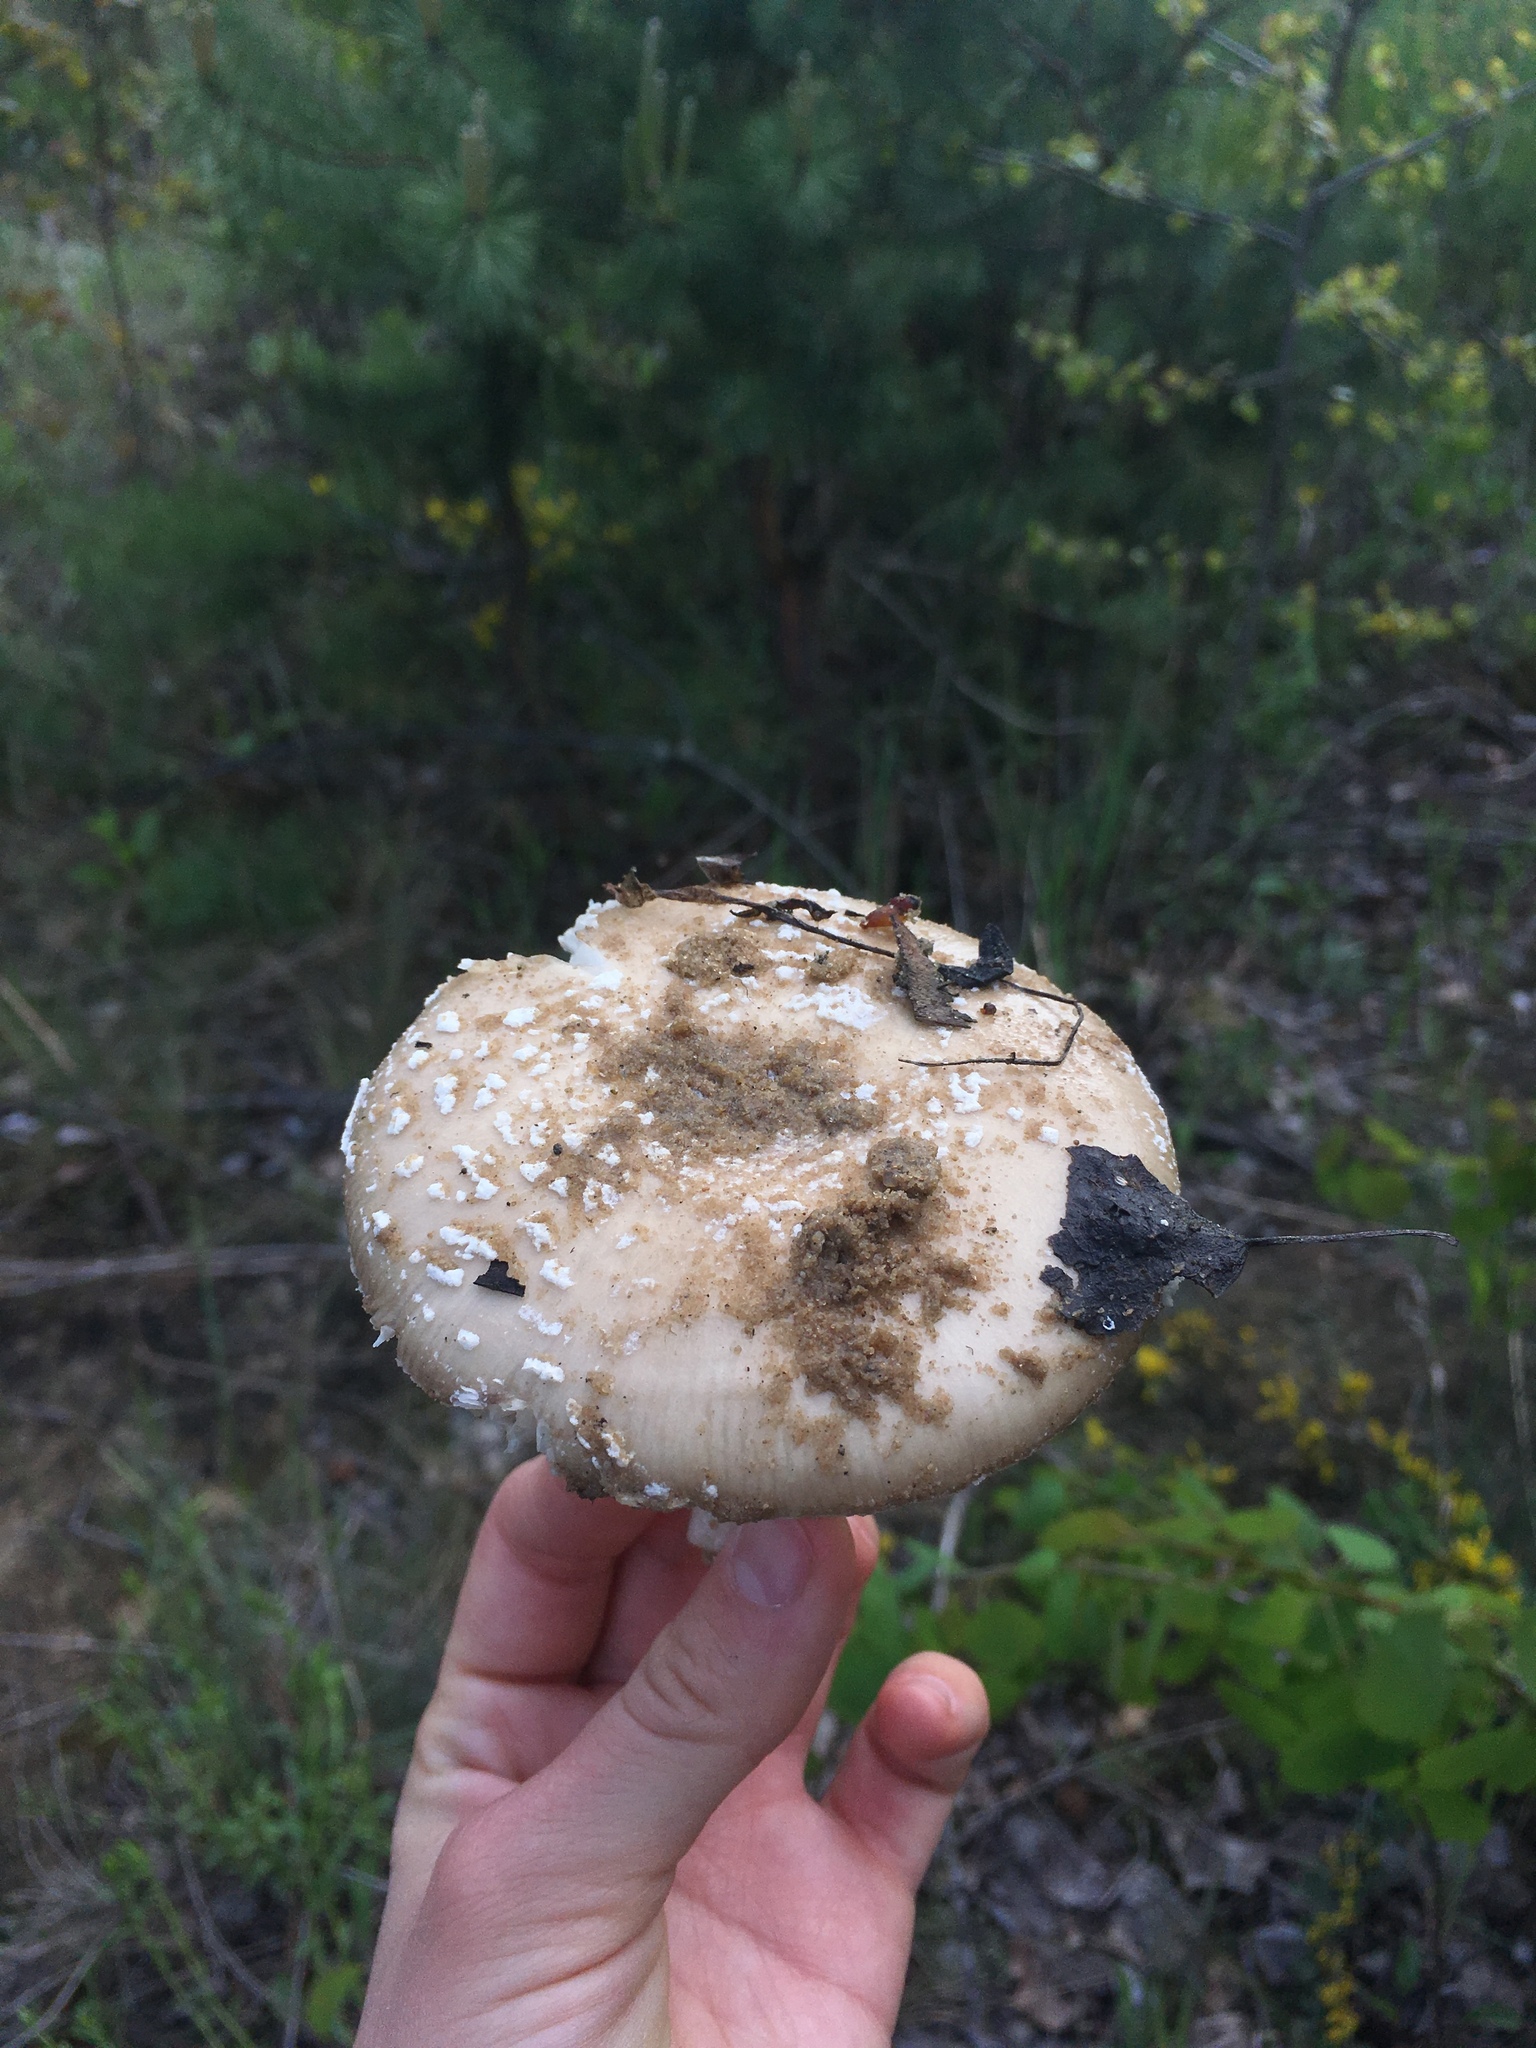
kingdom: Fungi
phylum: Basidiomycota
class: Agaricomycetes
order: Agaricales
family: Amanitaceae
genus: Amanita
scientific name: Amanita pantherina
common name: Panthercap
